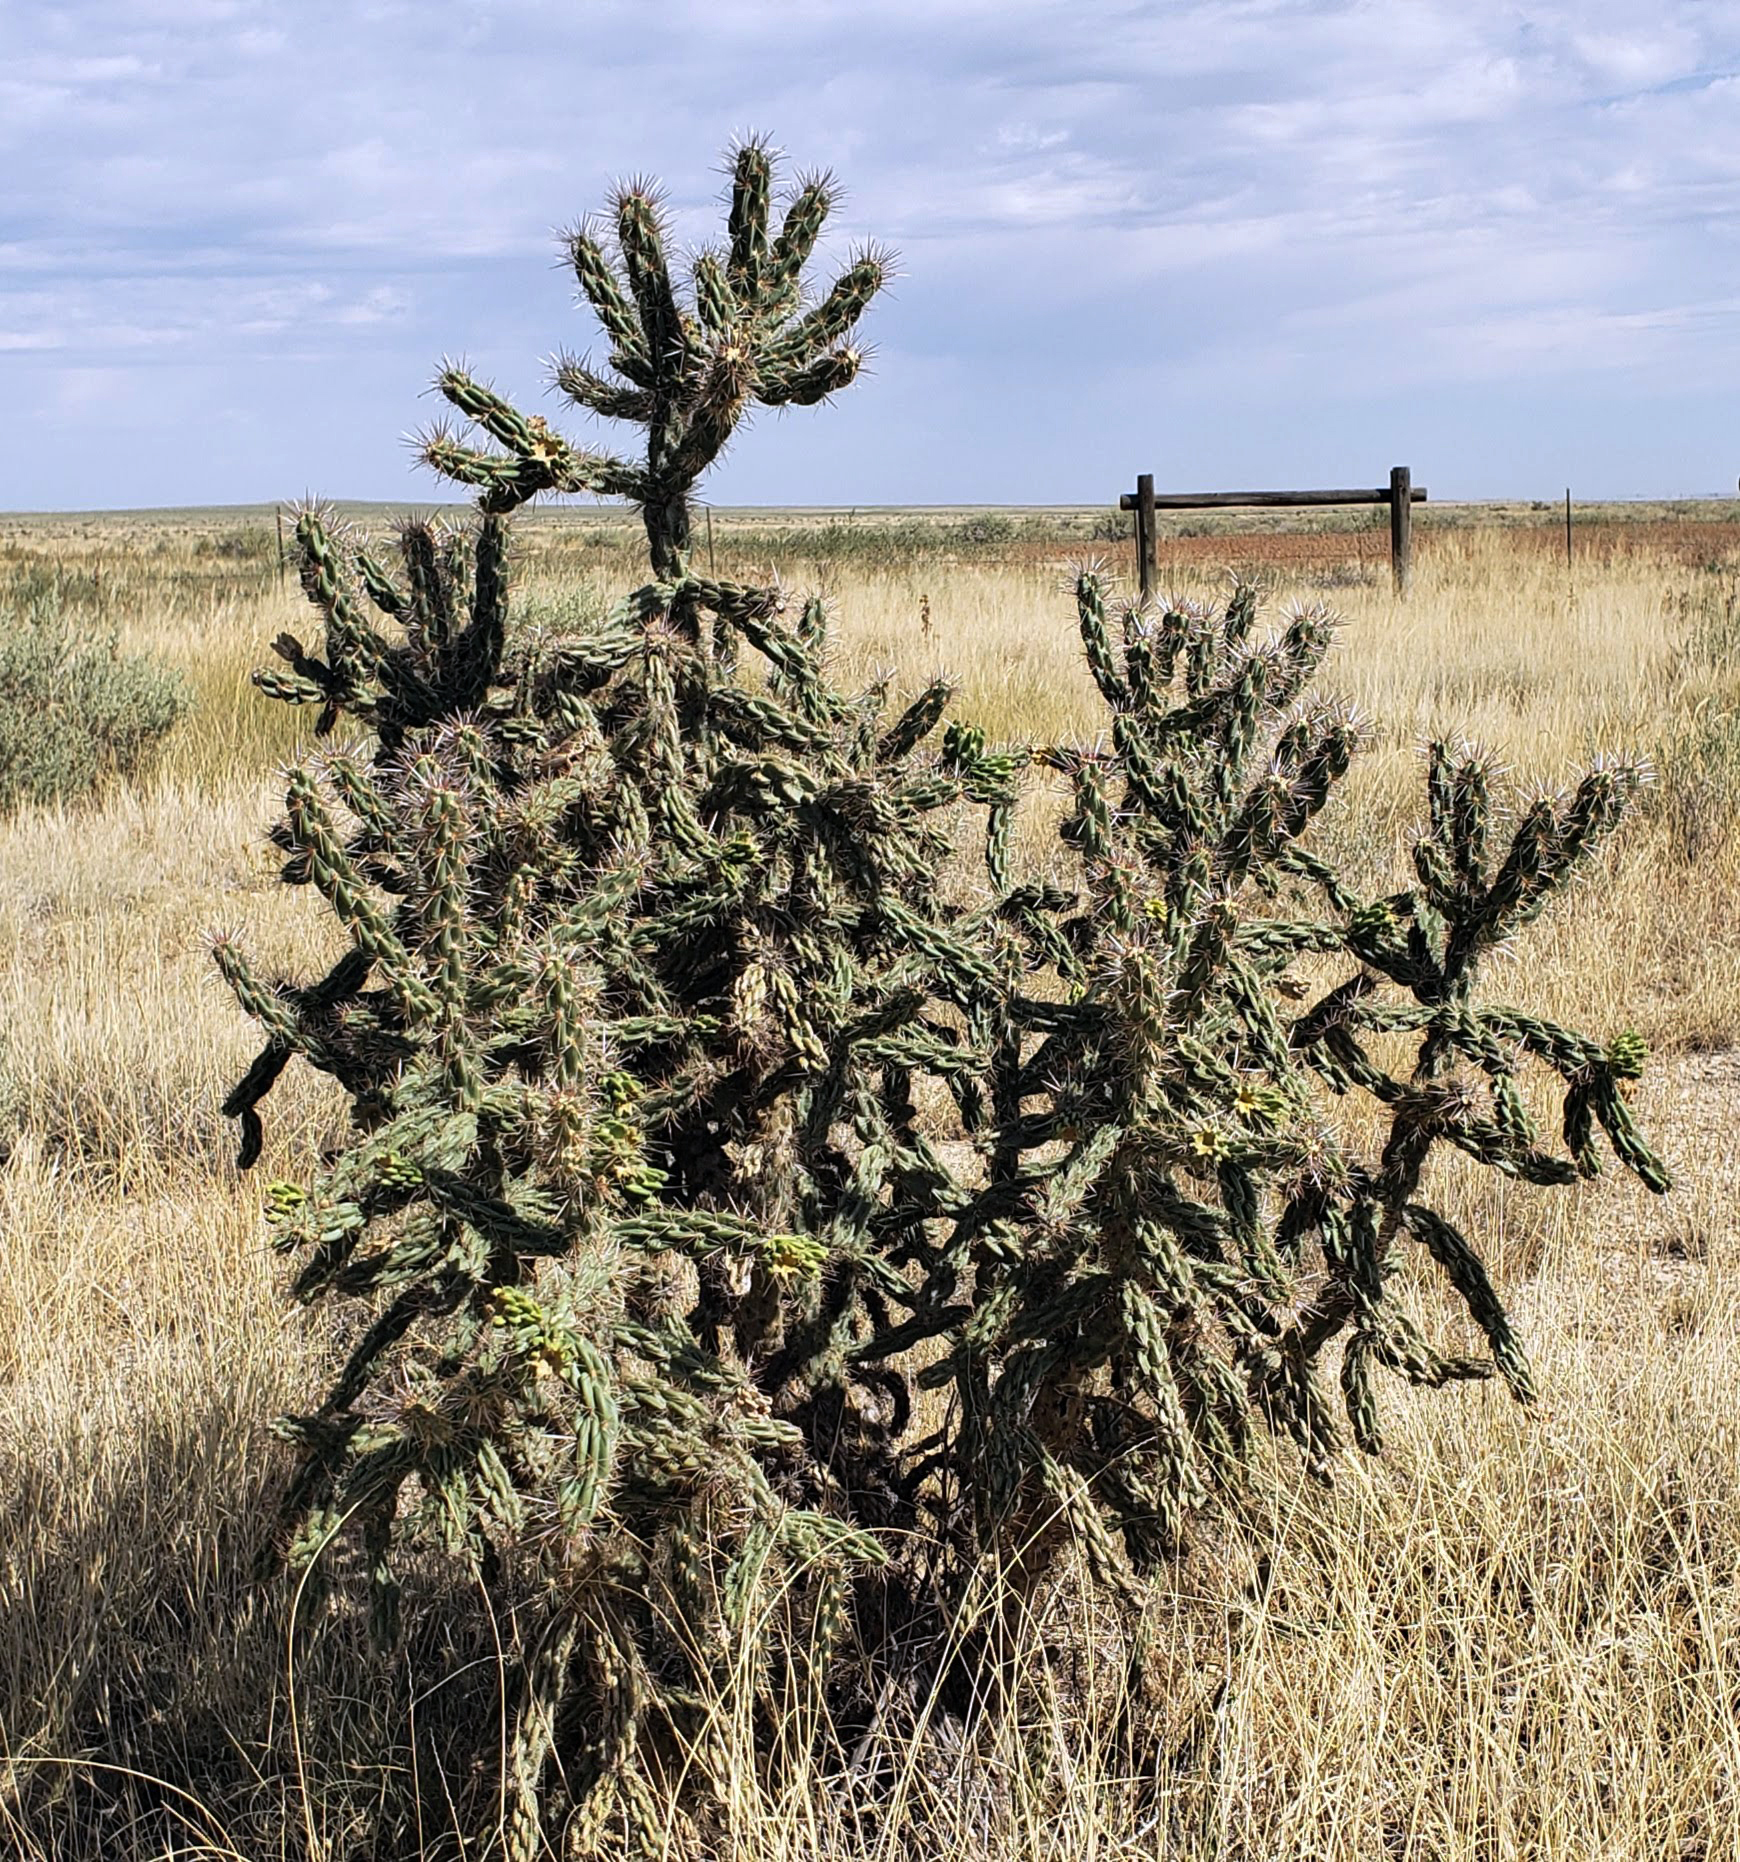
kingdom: Plantae
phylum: Tracheophyta
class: Magnoliopsida
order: Caryophyllales
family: Cactaceae
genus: Cylindropuntia
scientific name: Cylindropuntia imbricata
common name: Candelabrum cactus
